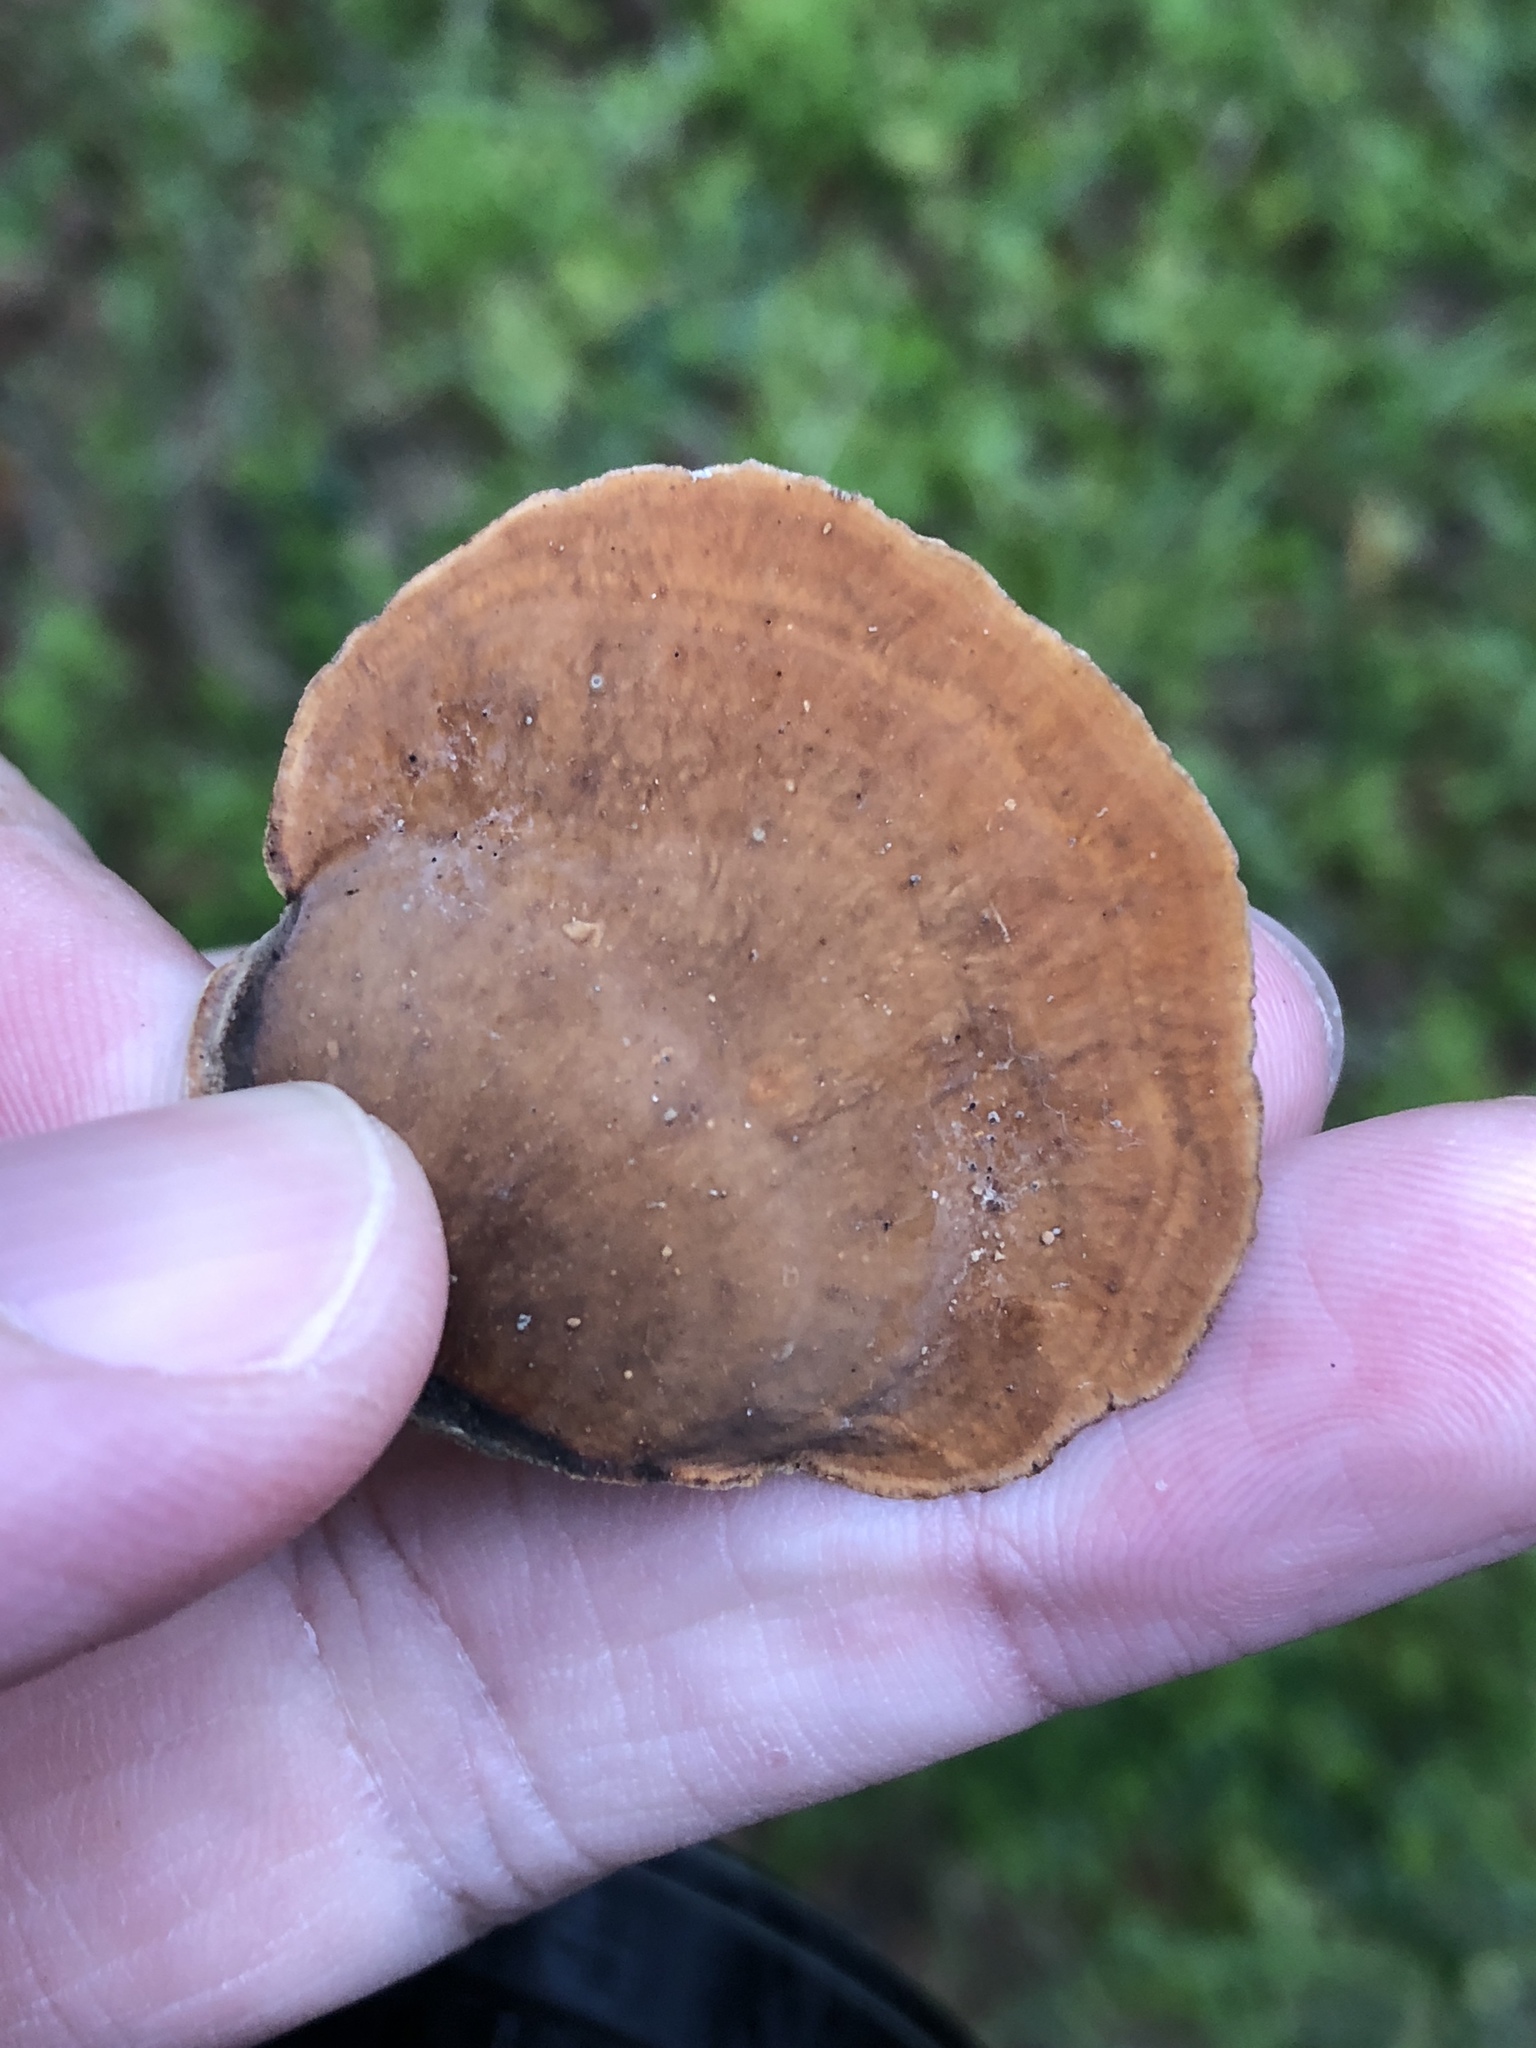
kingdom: Fungi
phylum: Basidiomycota
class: Agaricomycetes
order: Russulales
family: Stereaceae
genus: Stereum
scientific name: Stereum ostrea
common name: False turkeytail
